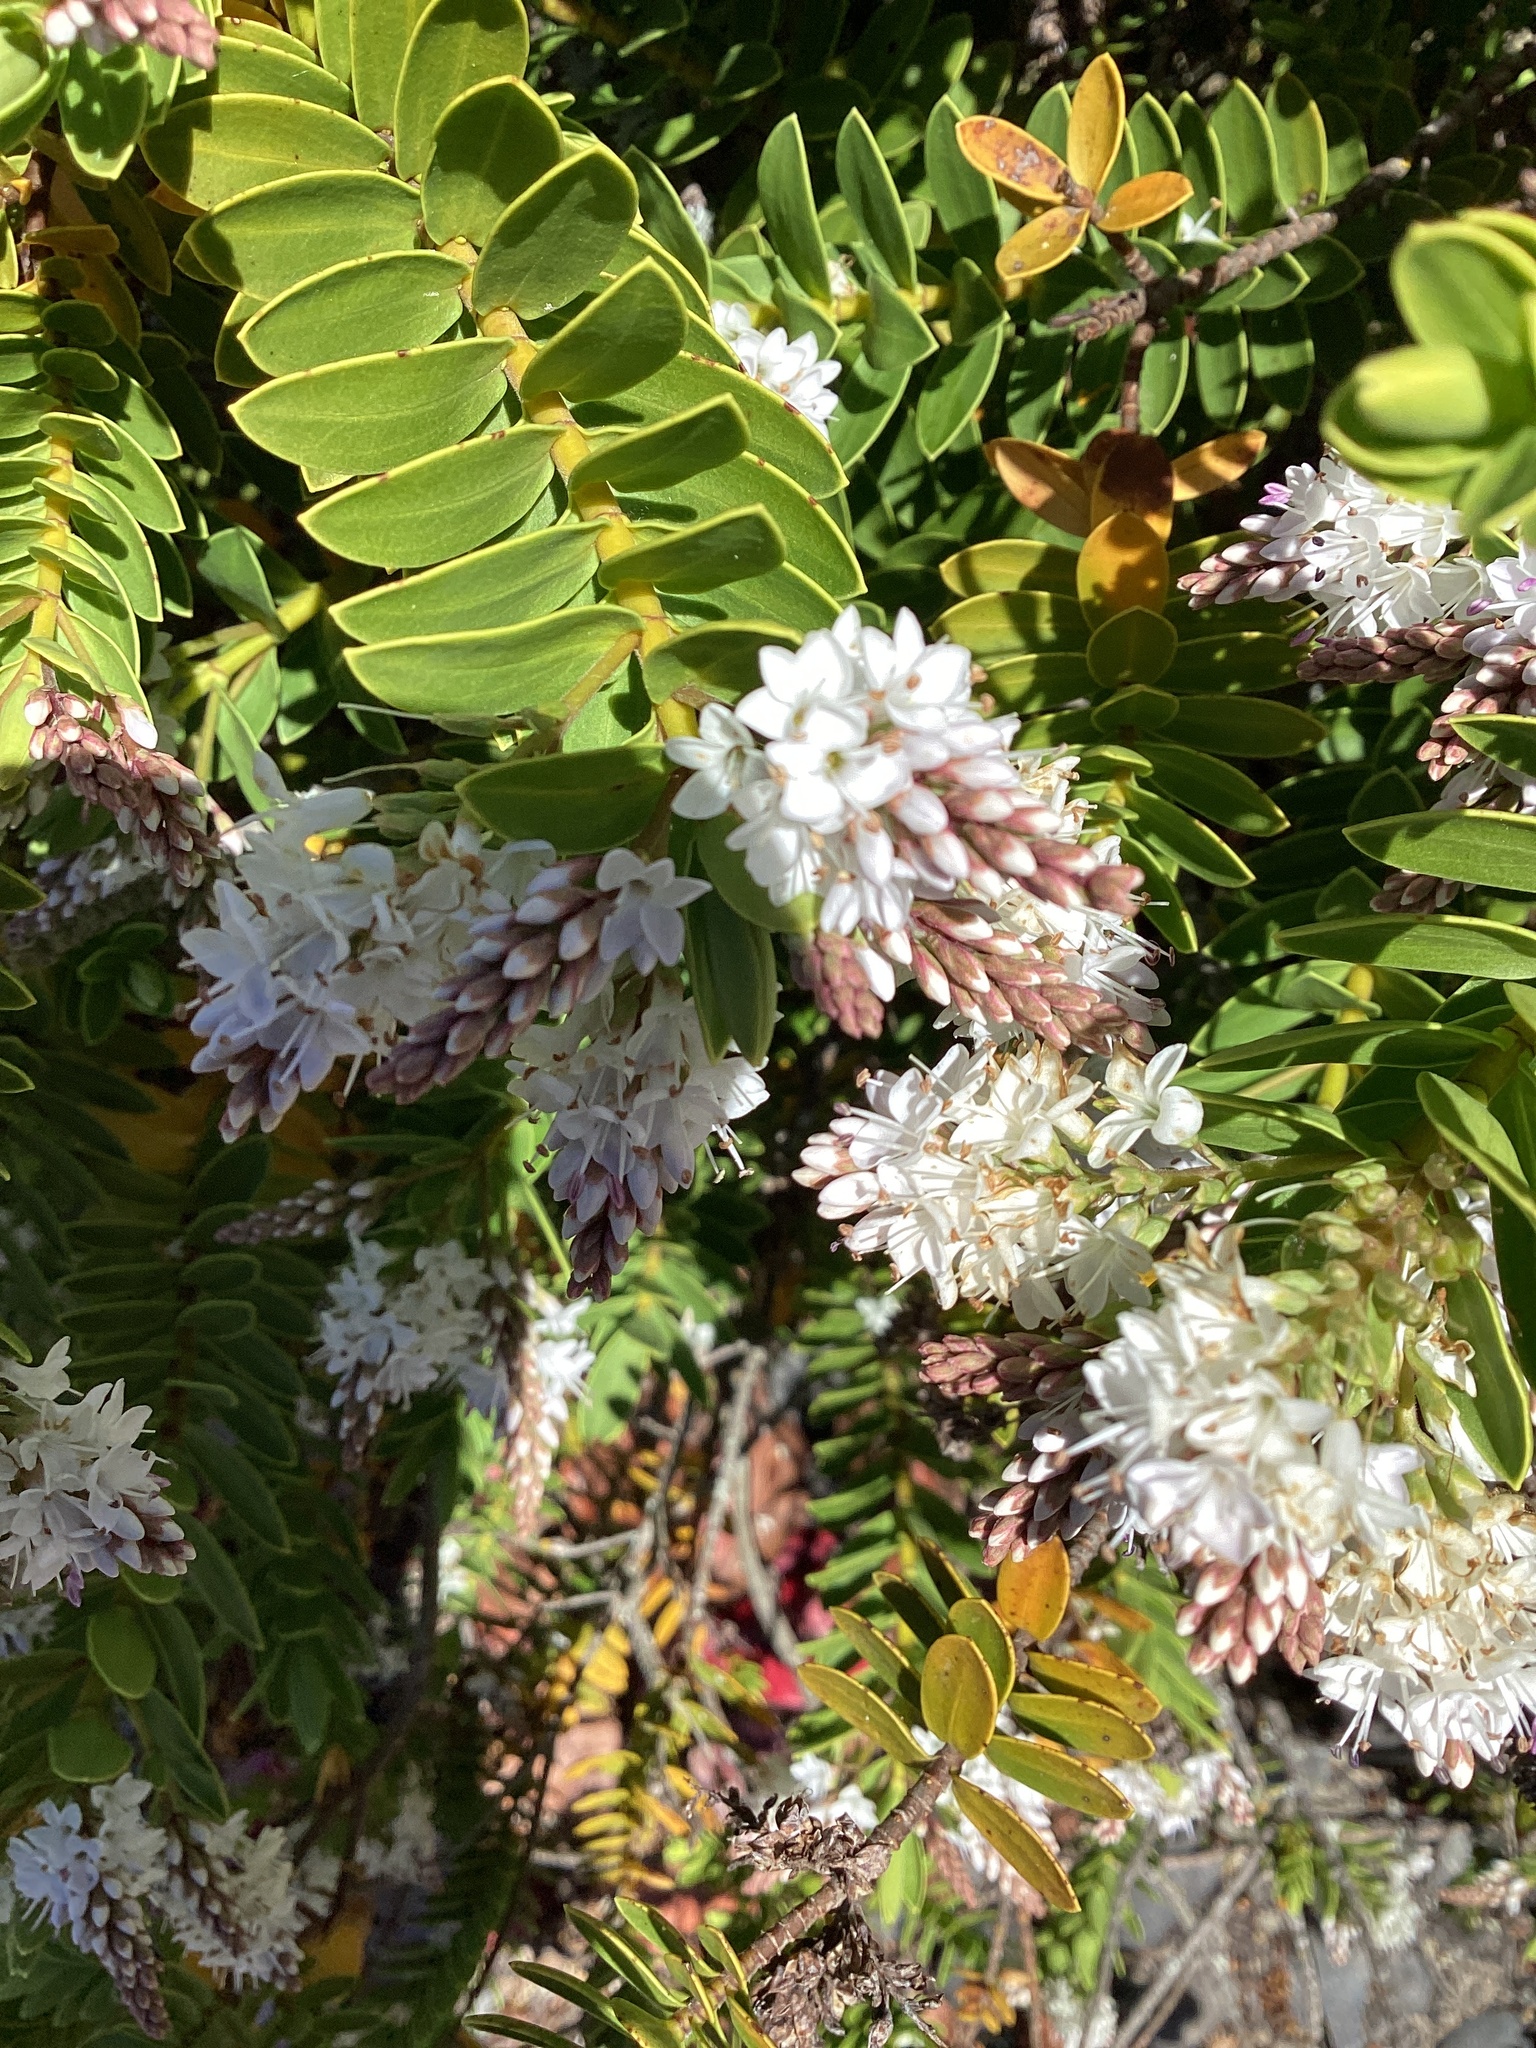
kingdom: Plantae
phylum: Tracheophyta
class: Magnoliopsida
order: Lamiales
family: Plantaginaceae
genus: Veronica
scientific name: Veronica vernicosa
